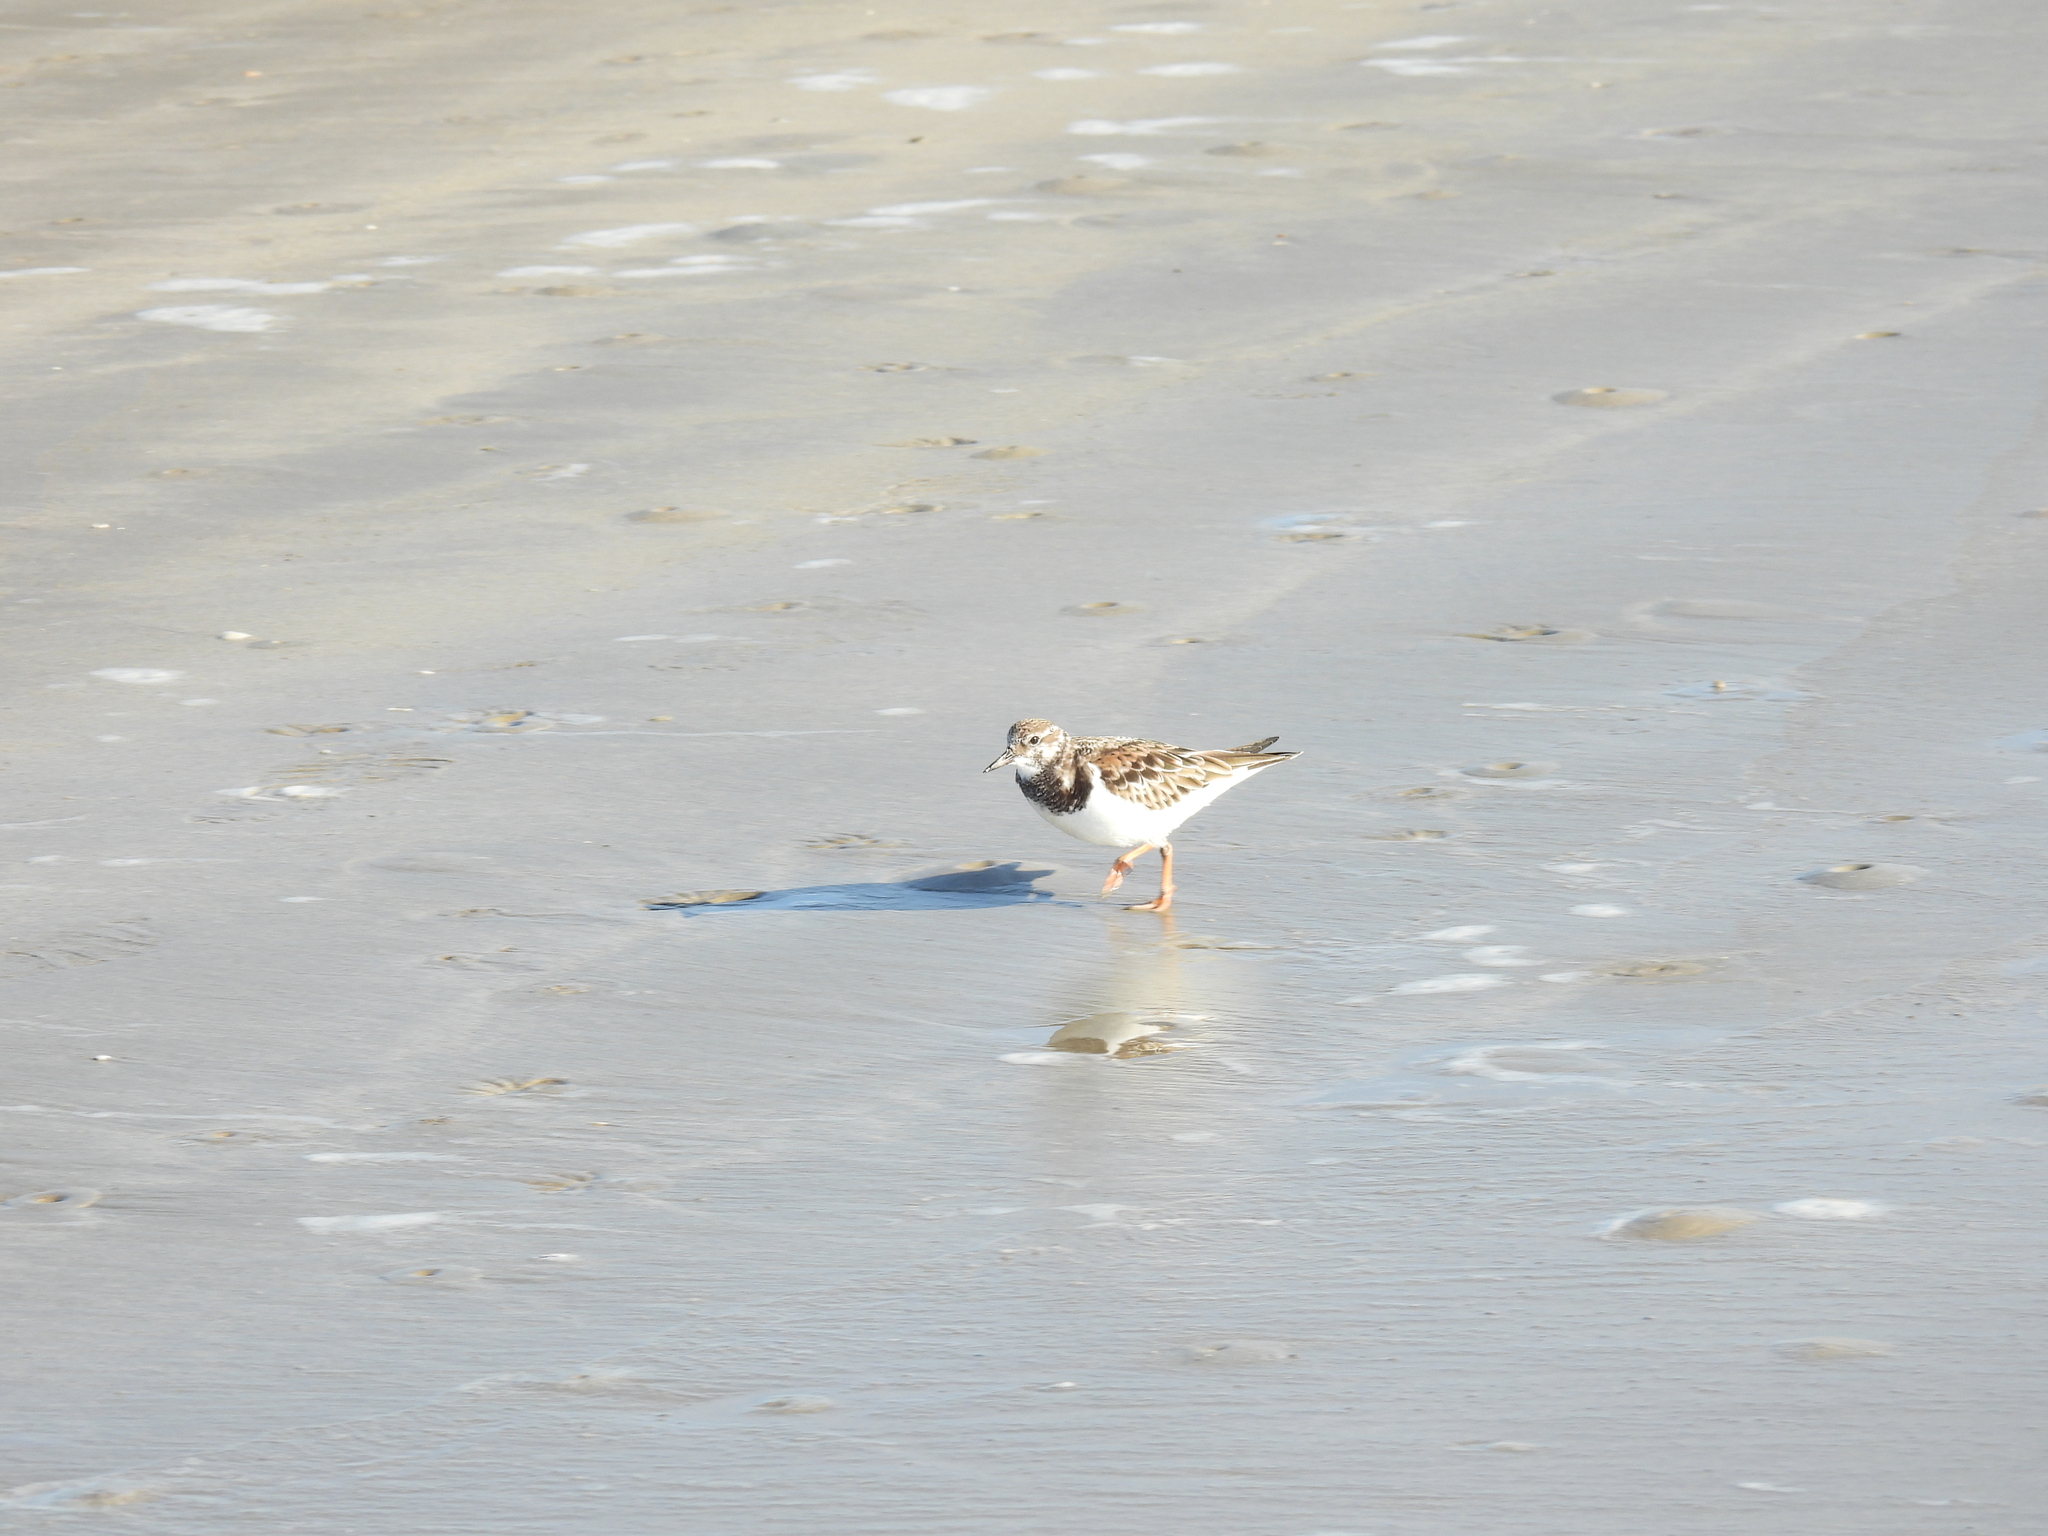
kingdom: Animalia
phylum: Chordata
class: Aves
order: Charadriiformes
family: Scolopacidae
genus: Arenaria
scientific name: Arenaria interpres
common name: Ruddy turnstone
